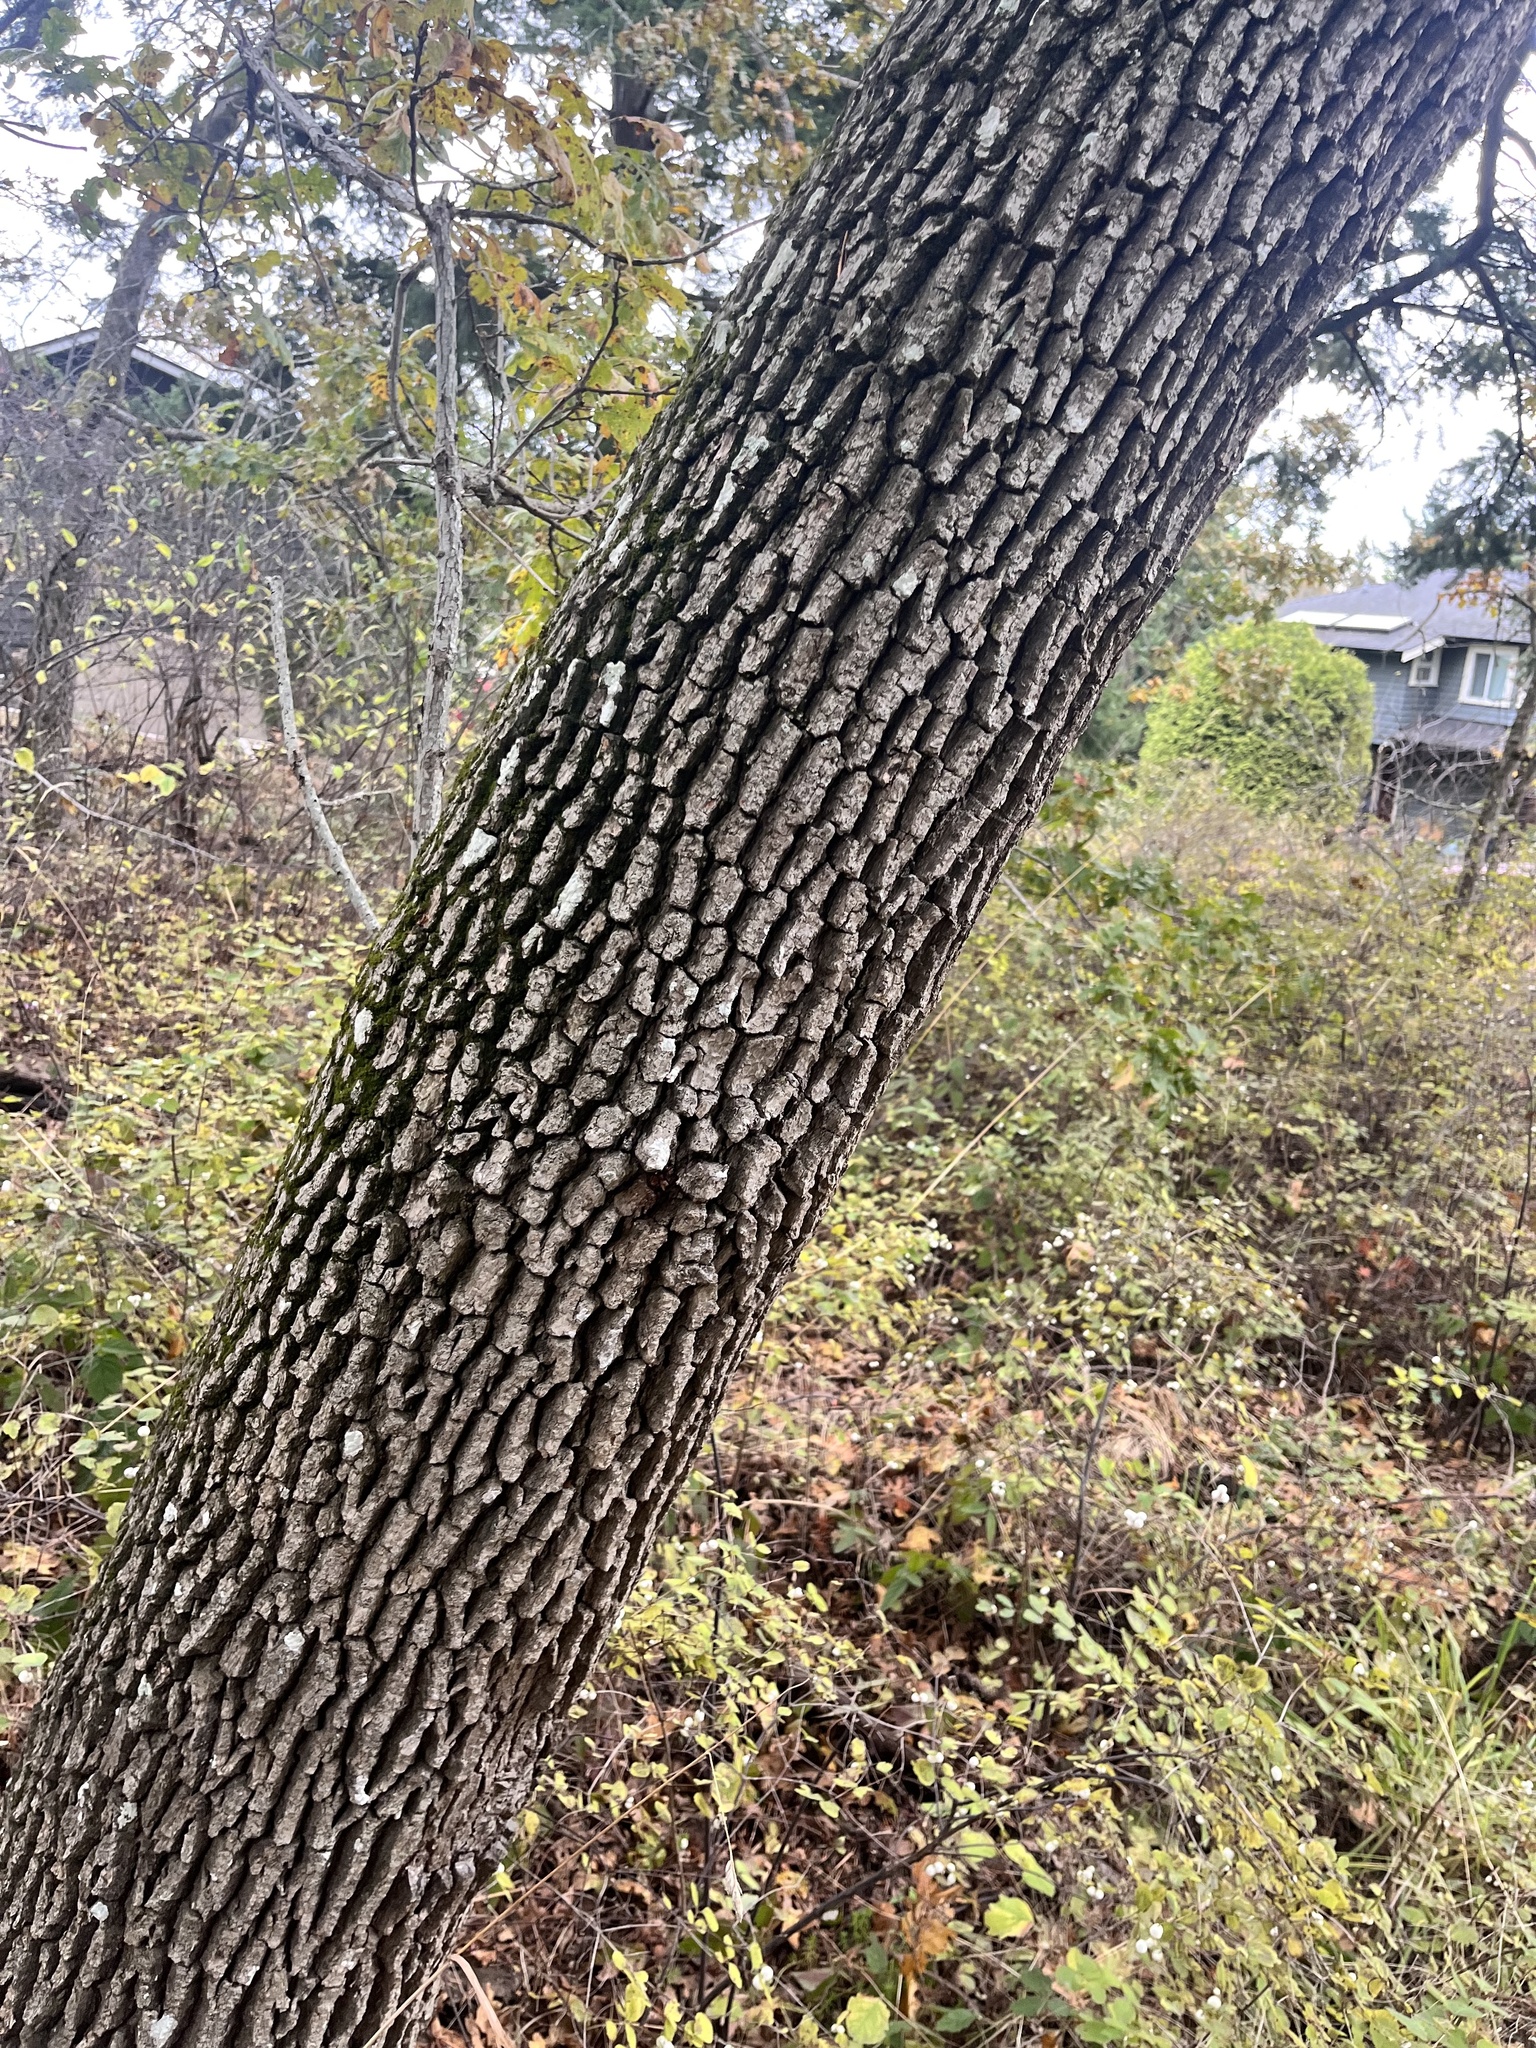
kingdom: Plantae
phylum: Tracheophyta
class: Magnoliopsida
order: Fagales
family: Fagaceae
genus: Quercus
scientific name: Quercus garryana
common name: Garry oak
